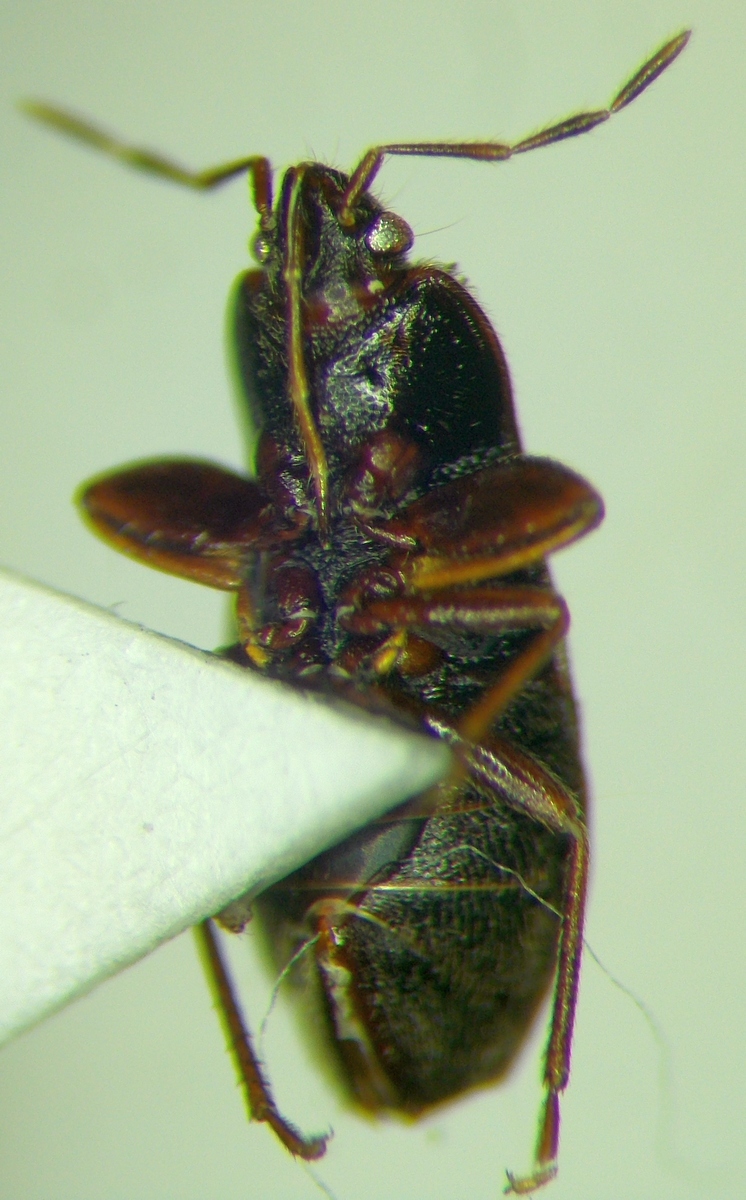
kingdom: Animalia
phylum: Arthropoda
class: Insecta
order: Hemiptera
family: Rhyparochromidae
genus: Plinthisus
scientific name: Plinthisus longicollis
